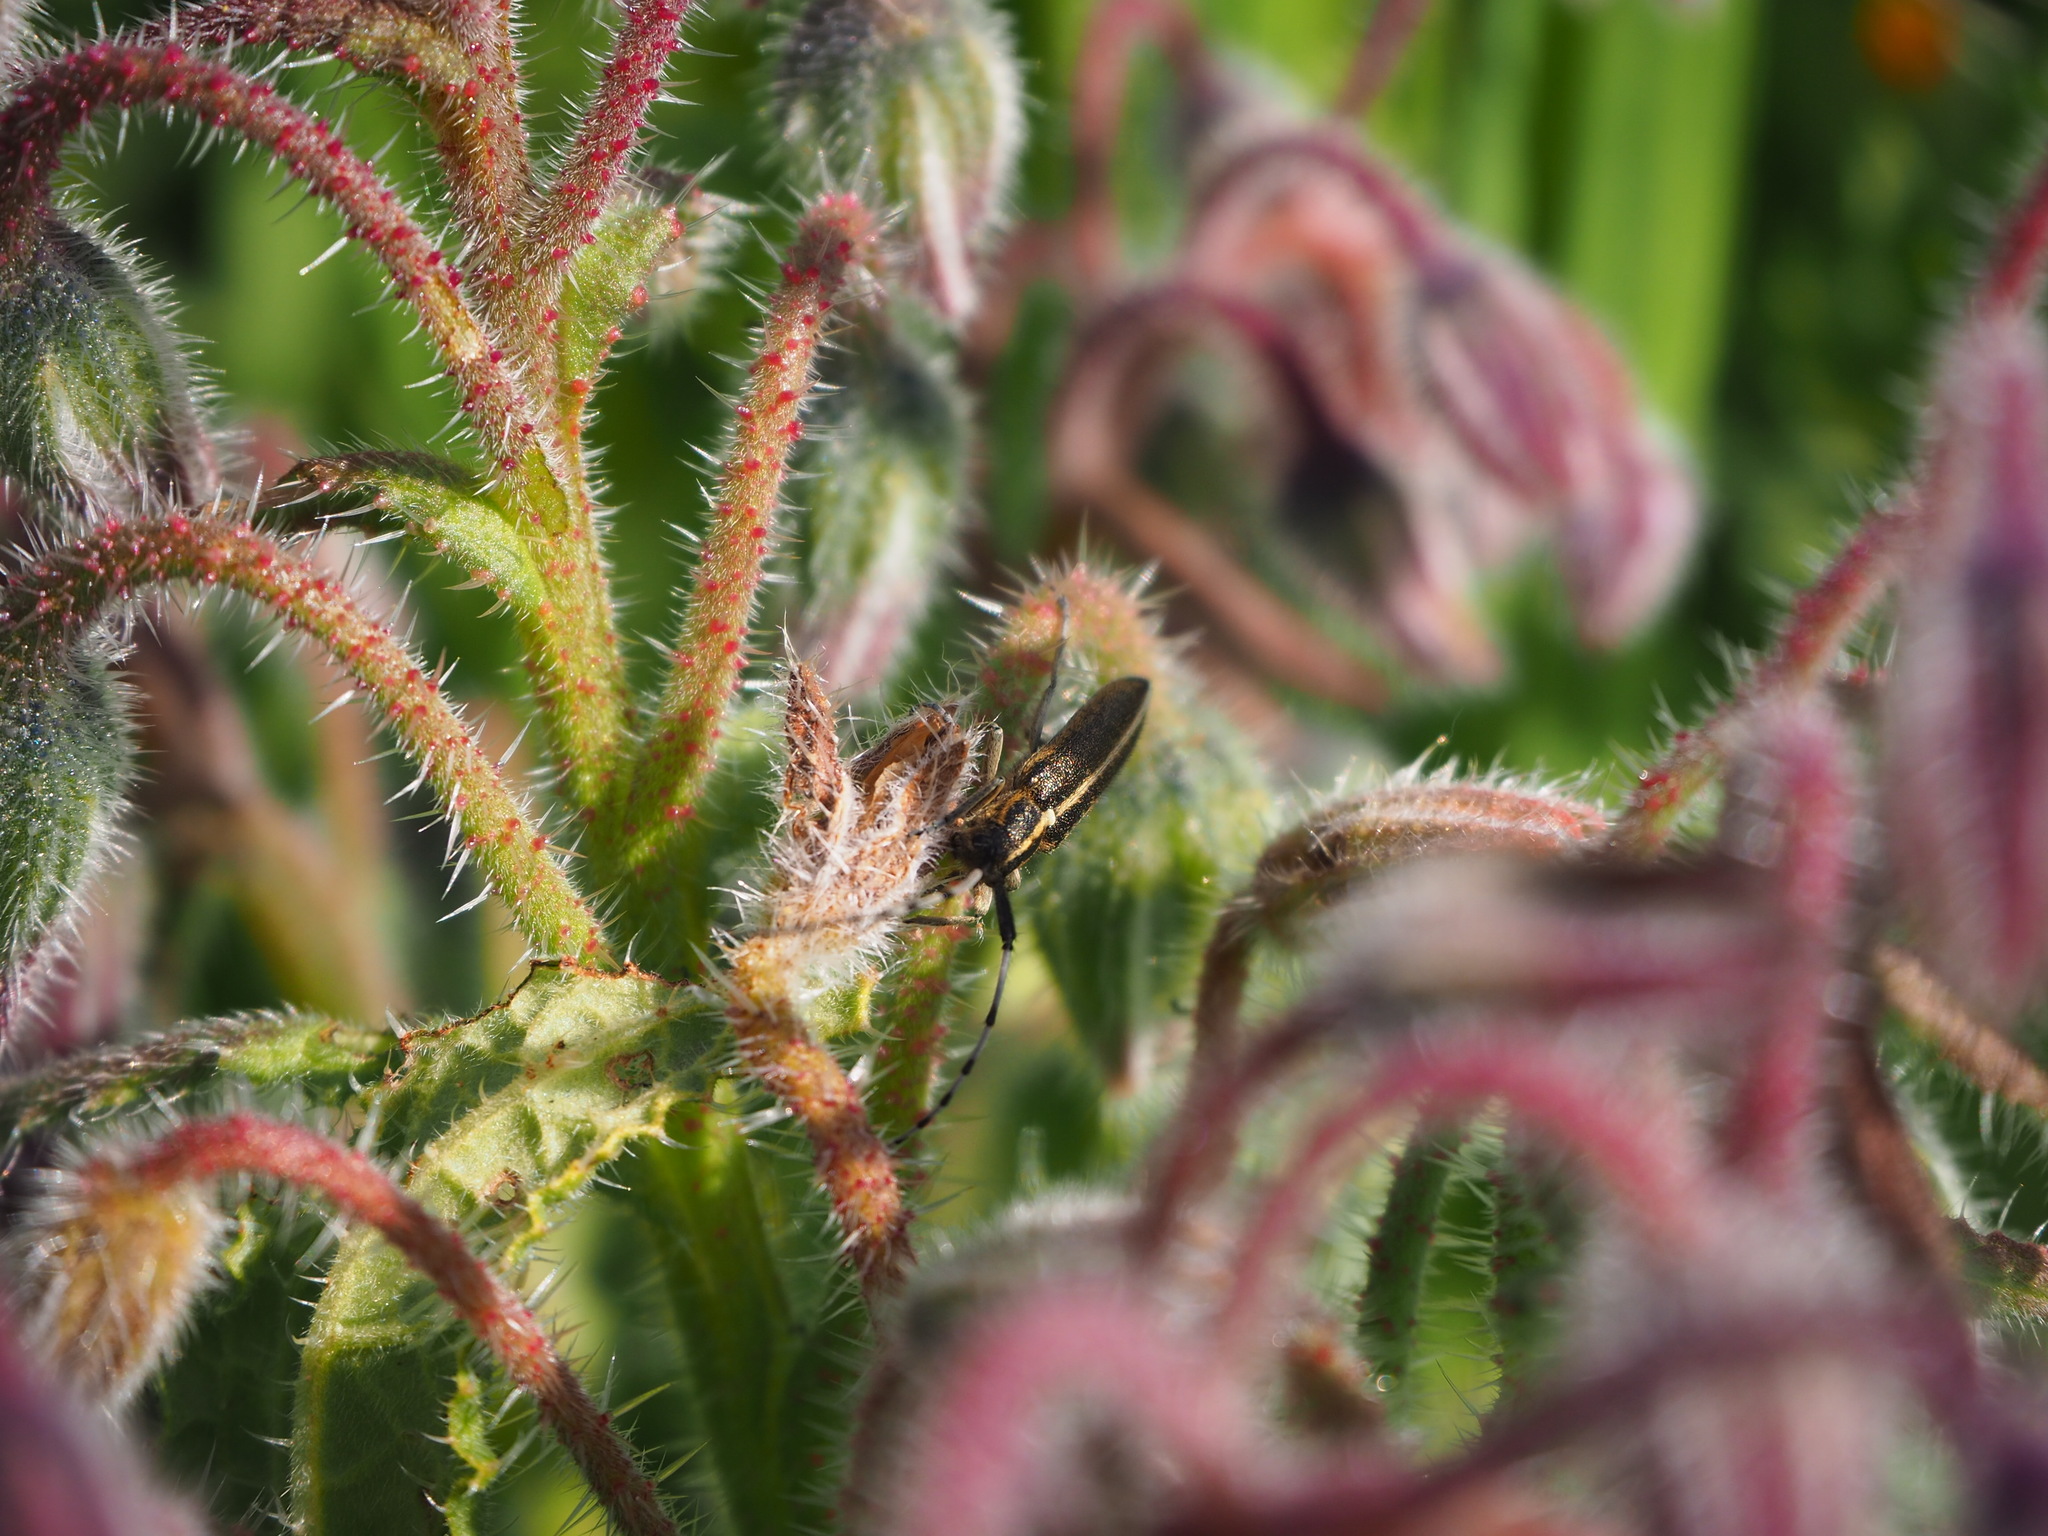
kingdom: Animalia
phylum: Arthropoda
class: Insecta
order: Coleoptera
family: Cerambycidae
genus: Agapanthia
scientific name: Agapanthia suturalis
